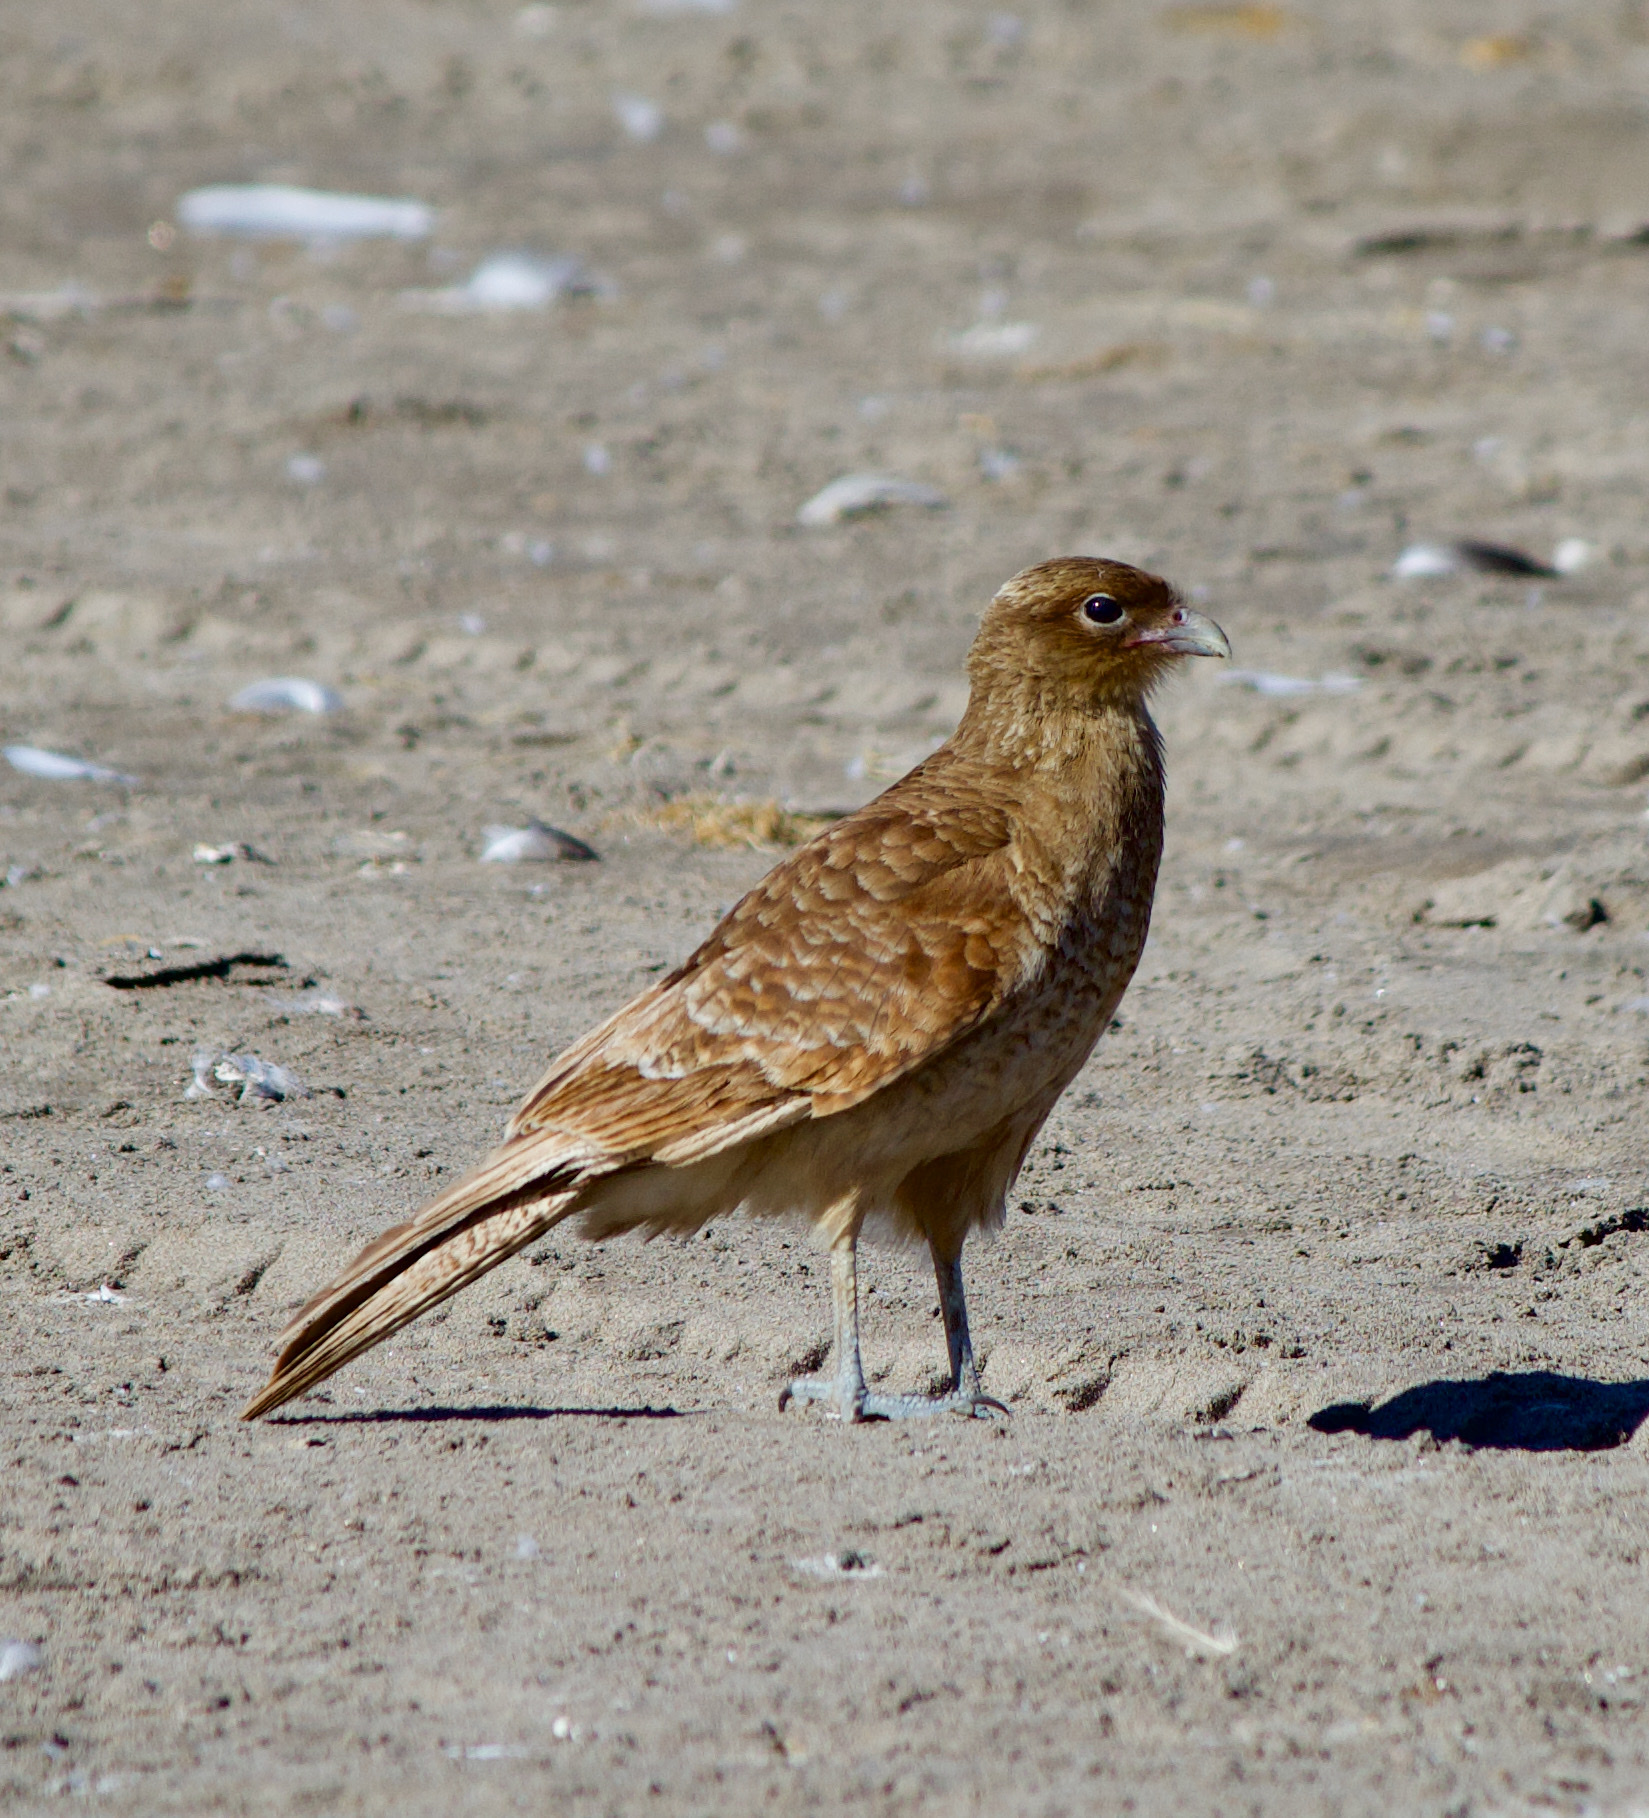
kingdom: Animalia
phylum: Chordata
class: Aves
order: Falconiformes
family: Falconidae
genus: Daptrius
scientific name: Daptrius
